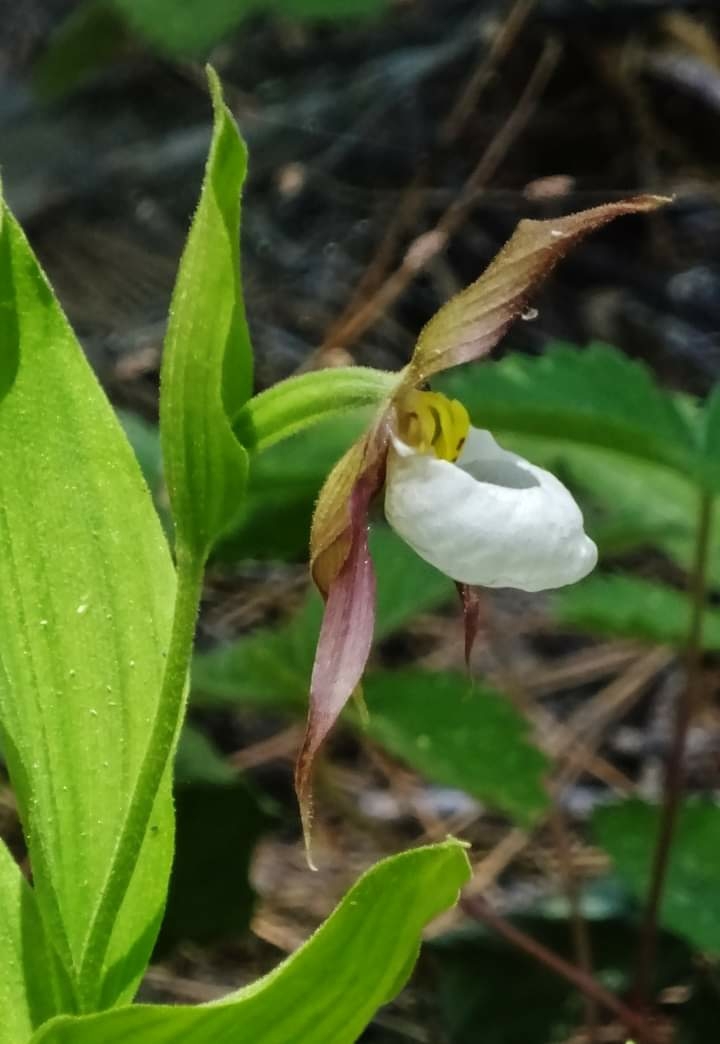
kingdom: Plantae
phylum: Tracheophyta
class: Liliopsida
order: Asparagales
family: Orchidaceae
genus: Cypripedium
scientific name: Cypripedium montanum
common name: Mountain lady's-slipper
